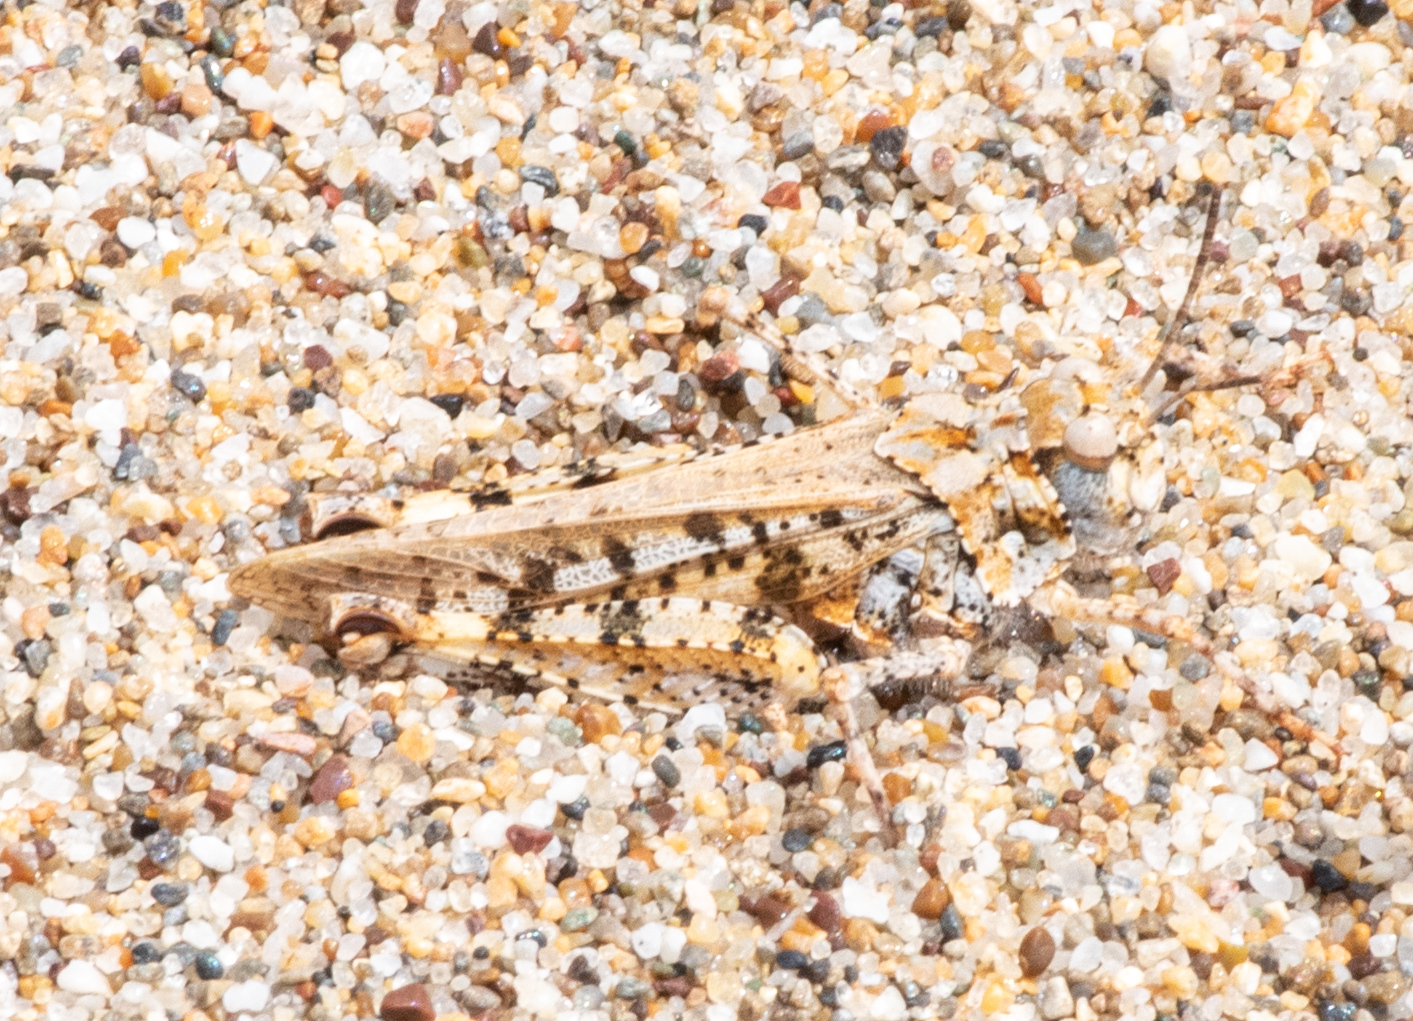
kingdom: Animalia
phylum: Arthropoda
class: Insecta
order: Orthoptera
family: Acrididae
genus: Microtes
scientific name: Microtes occidentalis
